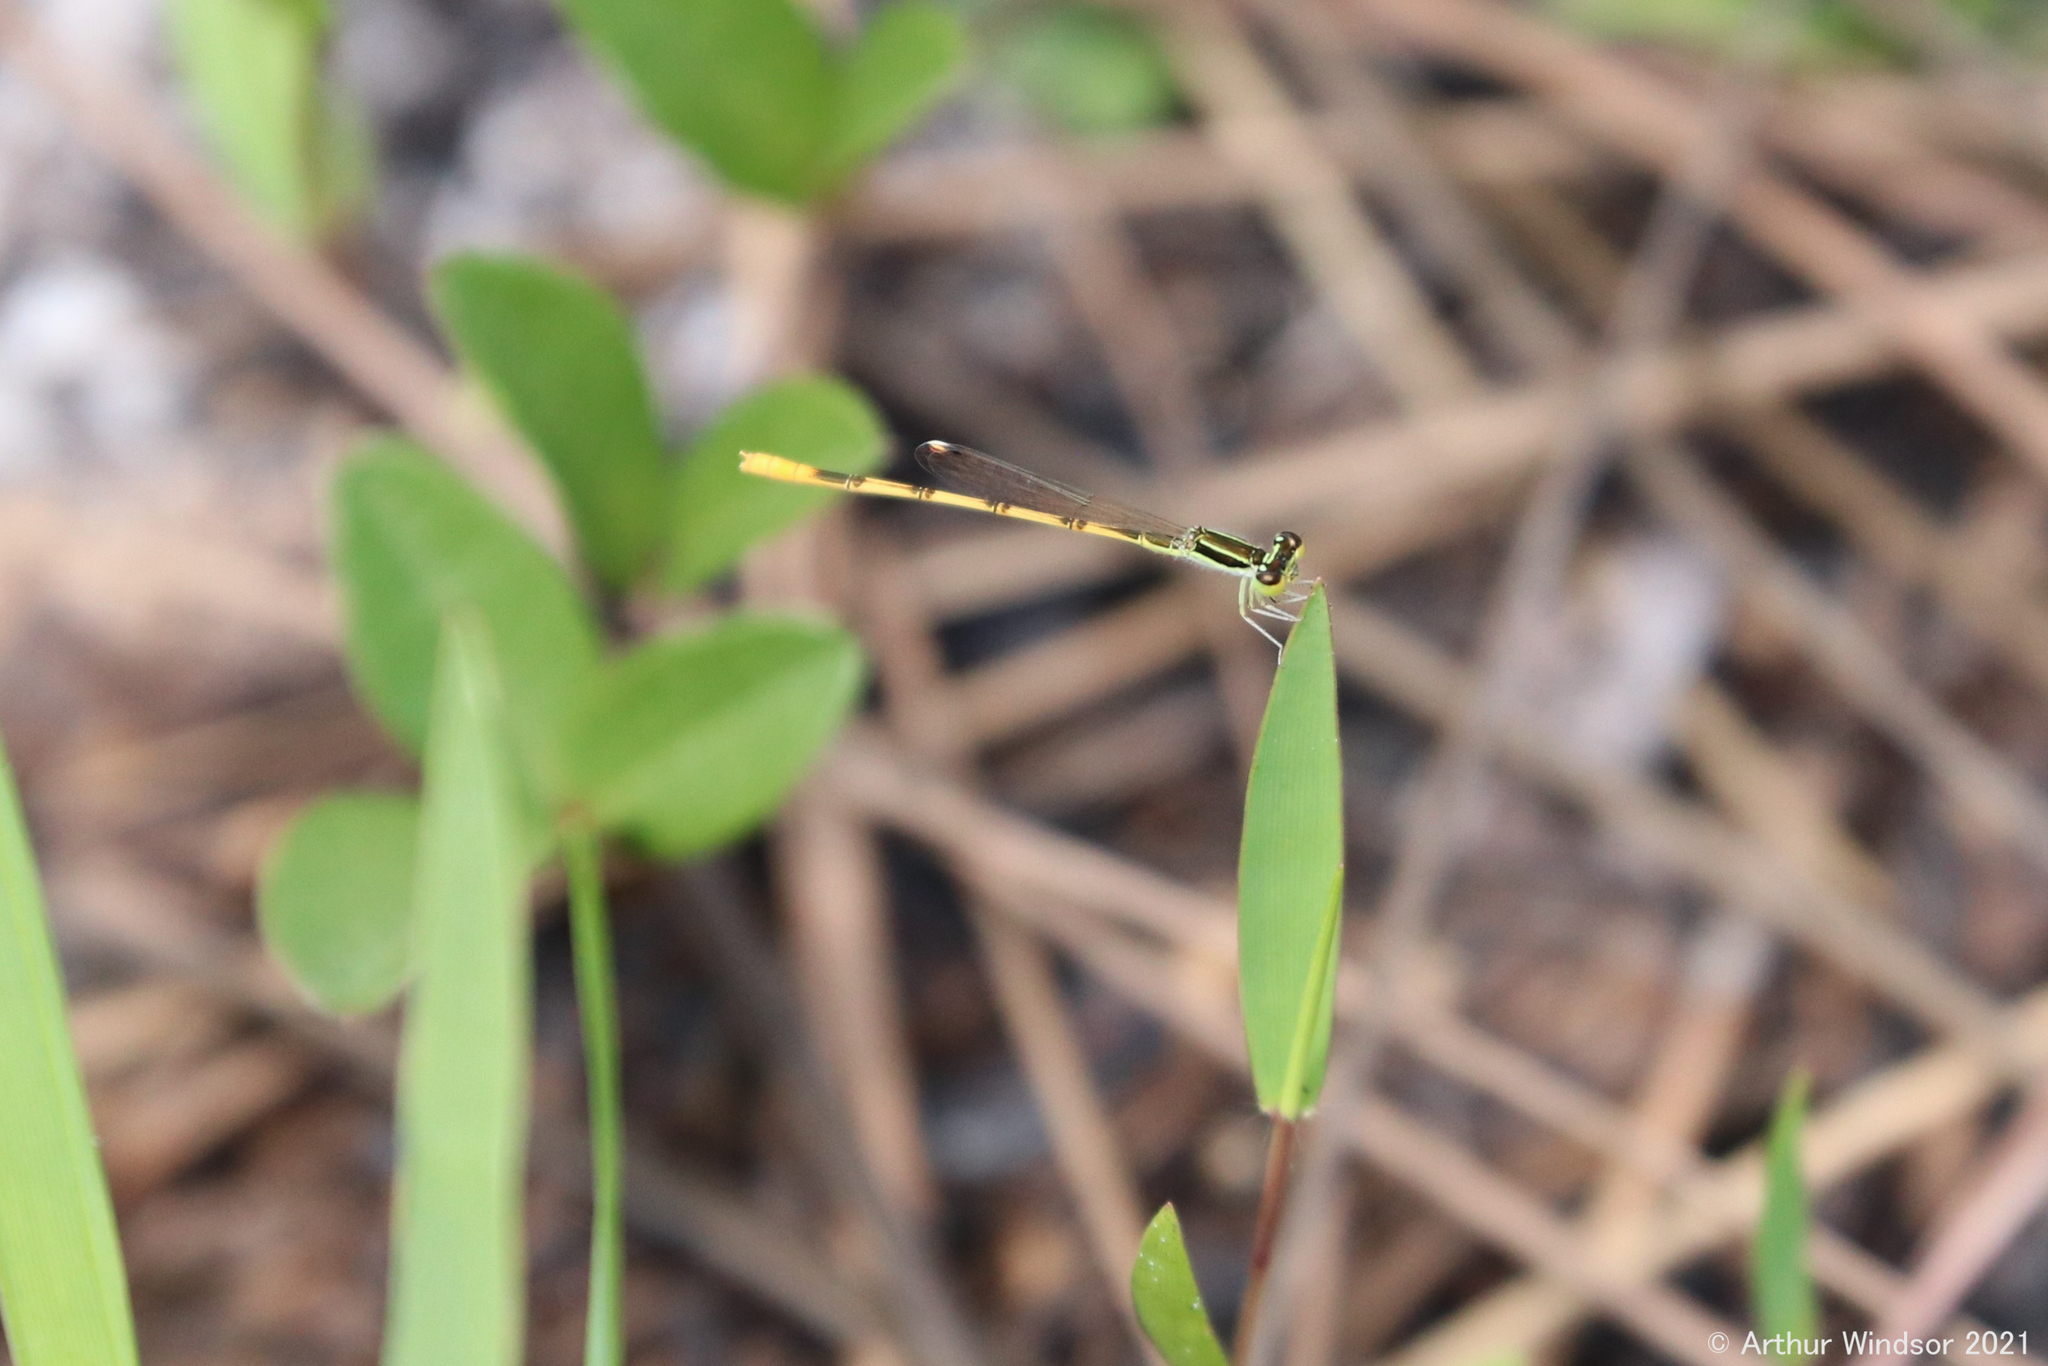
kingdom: Animalia
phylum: Arthropoda
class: Insecta
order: Odonata
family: Coenagrionidae
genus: Ischnura
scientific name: Ischnura hastata
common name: Citrine forktail
